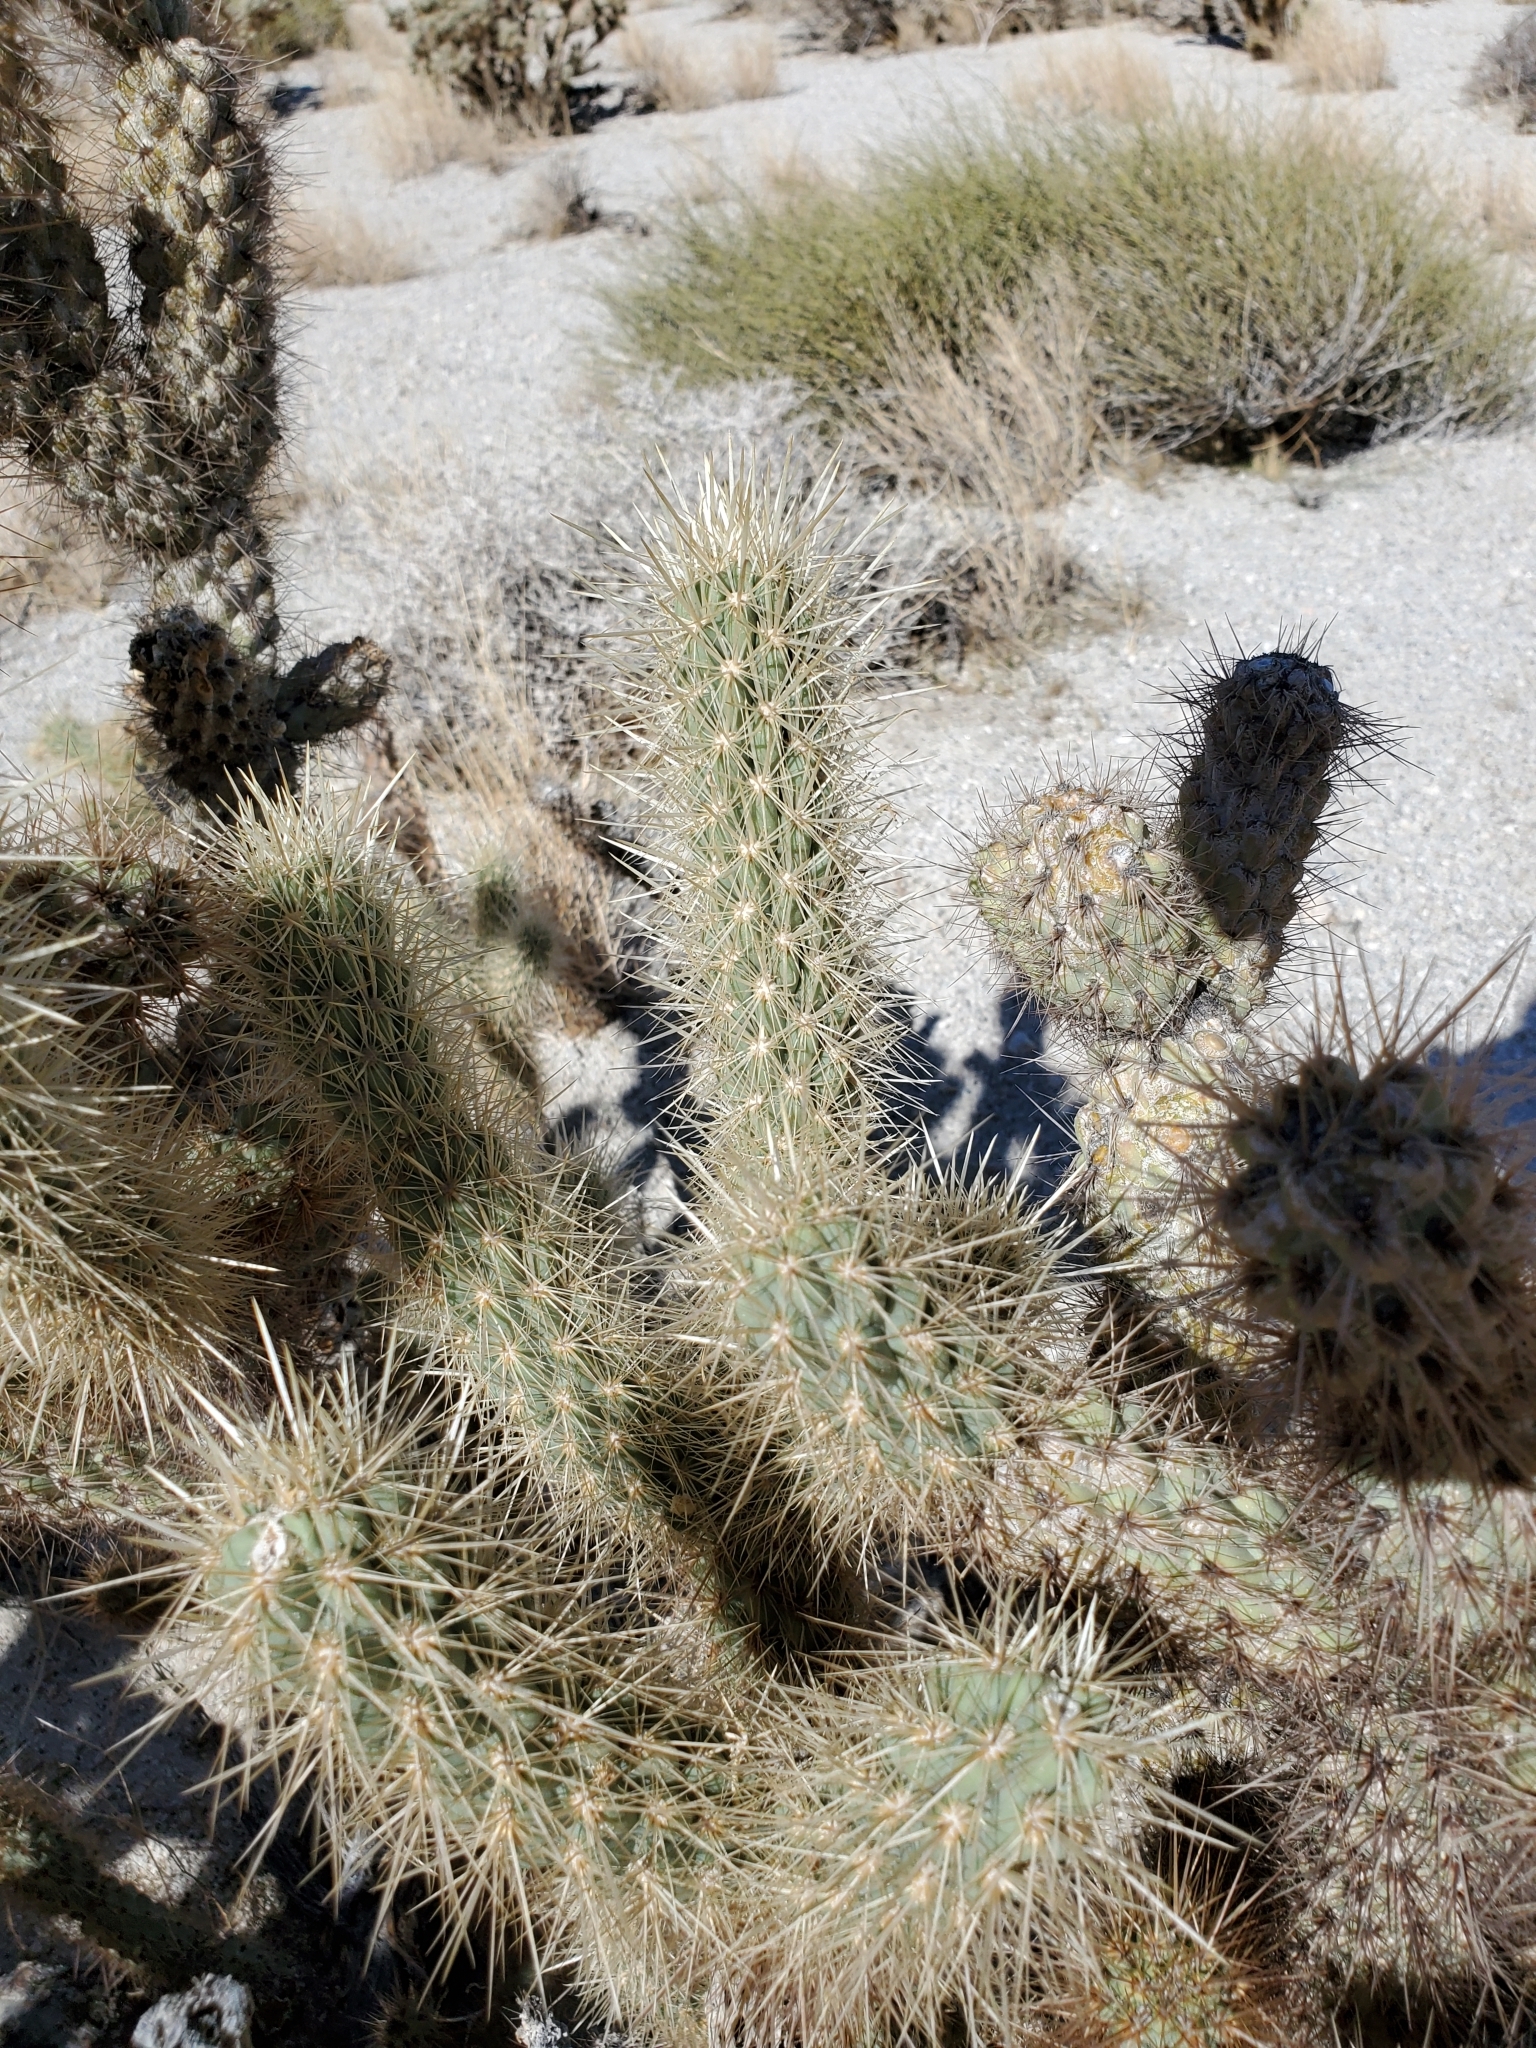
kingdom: Plantae
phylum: Tracheophyta
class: Magnoliopsida
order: Caryophyllales
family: Cactaceae
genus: Cylindropuntia
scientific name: Cylindropuntia wolfii
